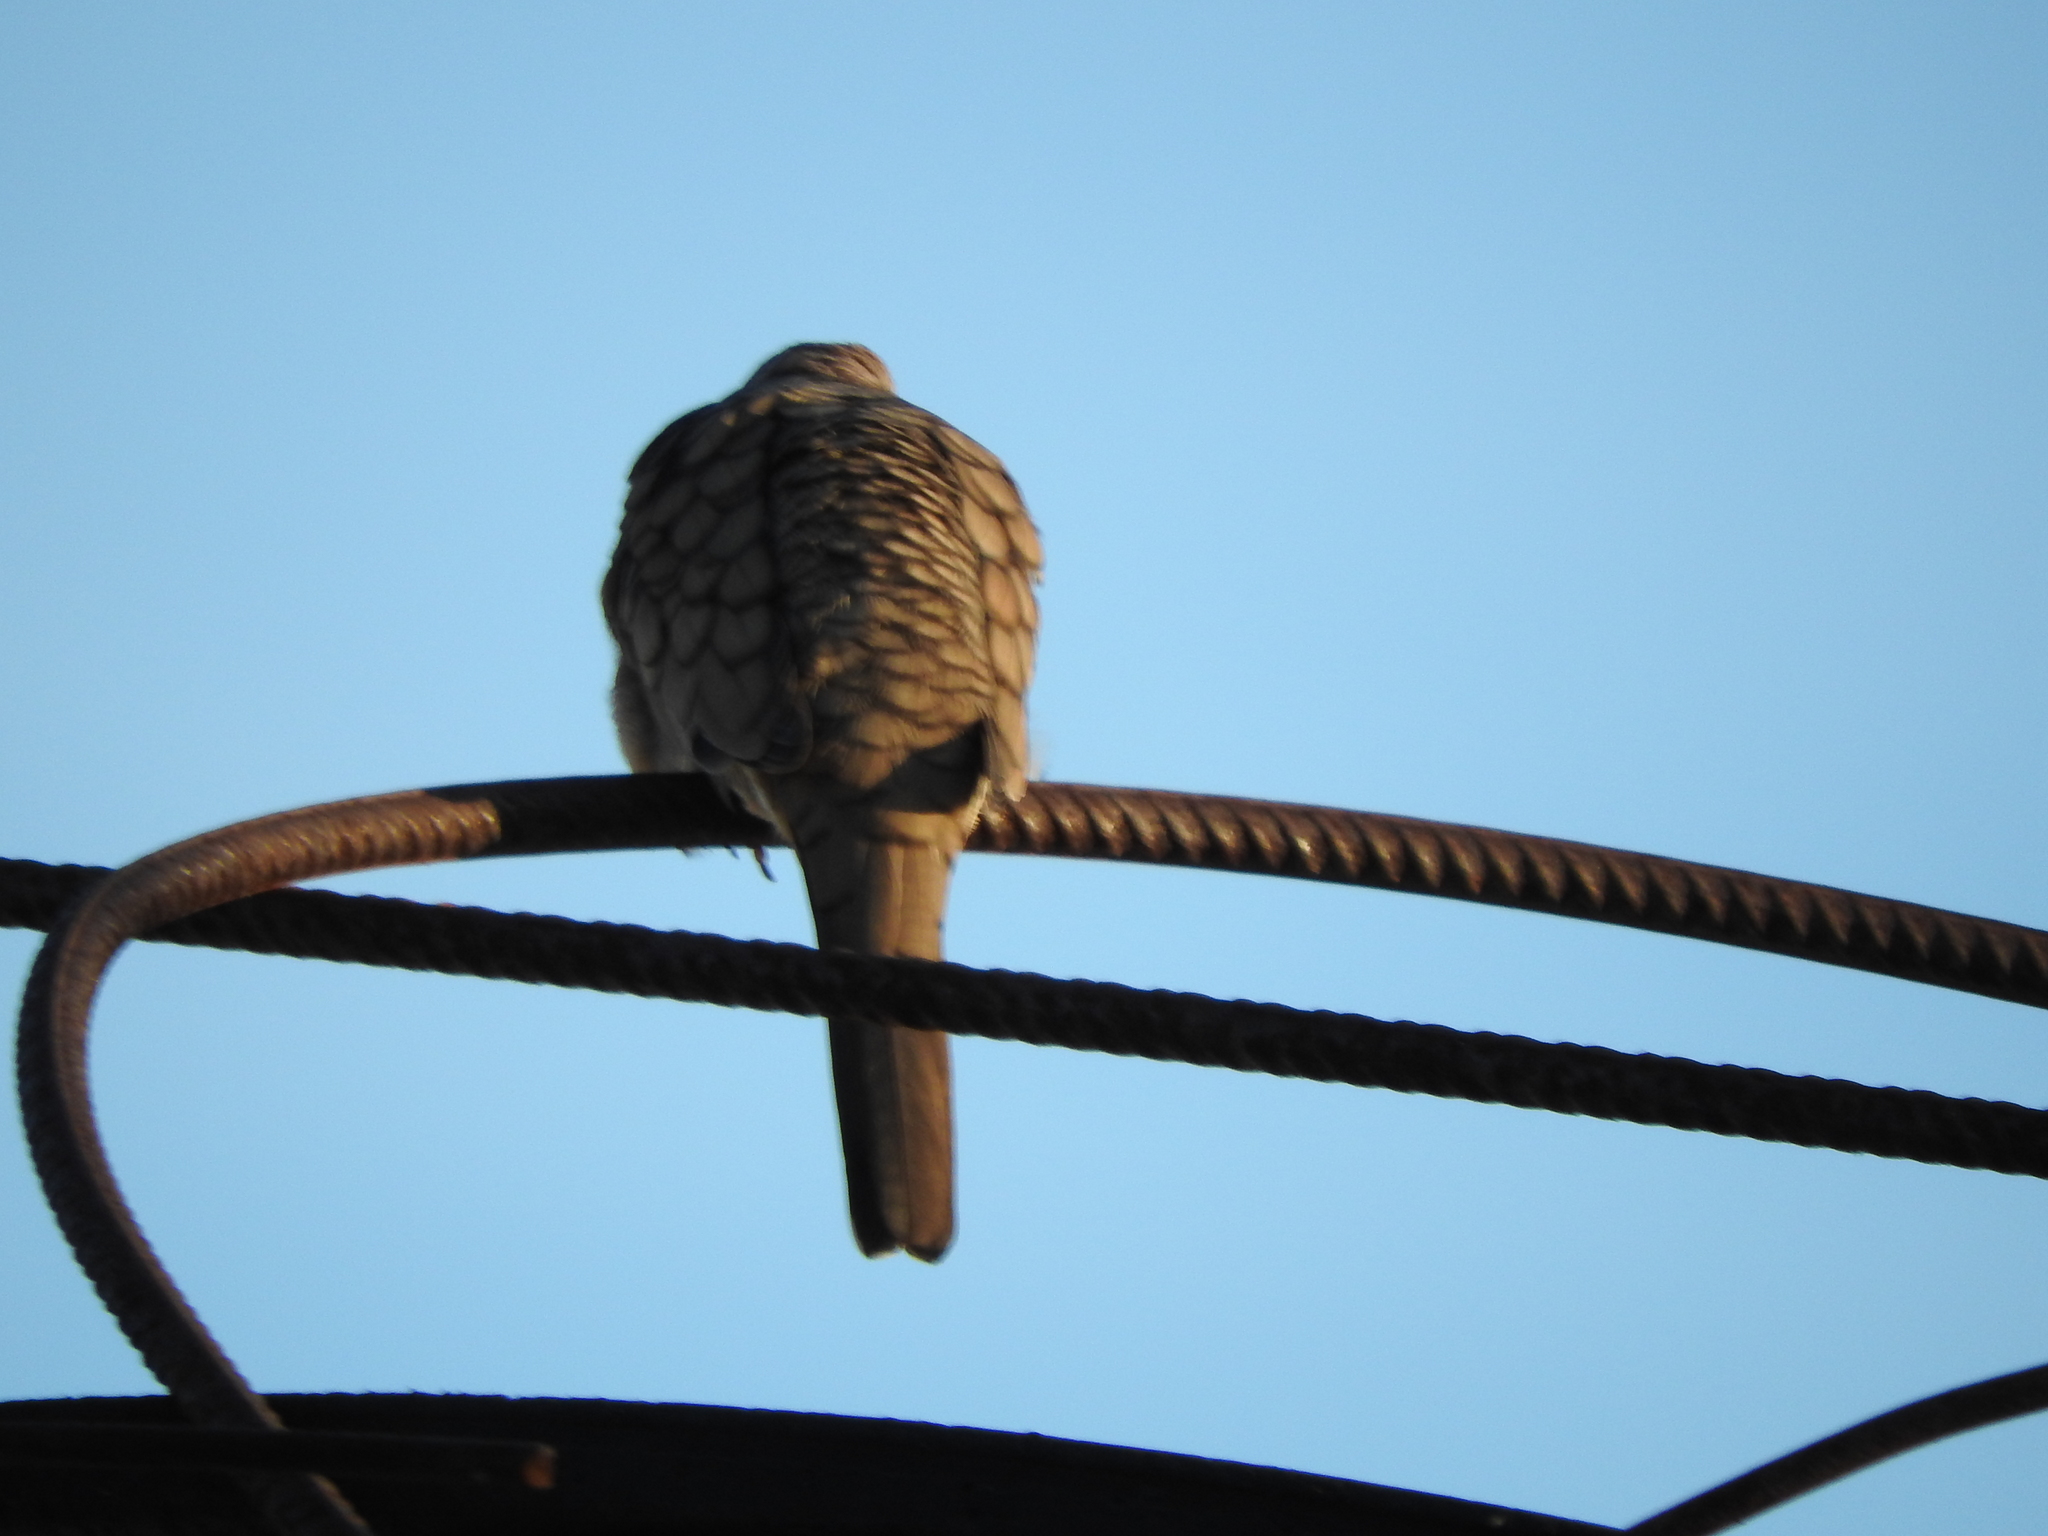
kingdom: Animalia
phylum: Chordata
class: Aves
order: Columbiformes
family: Columbidae
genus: Columbina
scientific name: Columbina inca
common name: Inca dove
